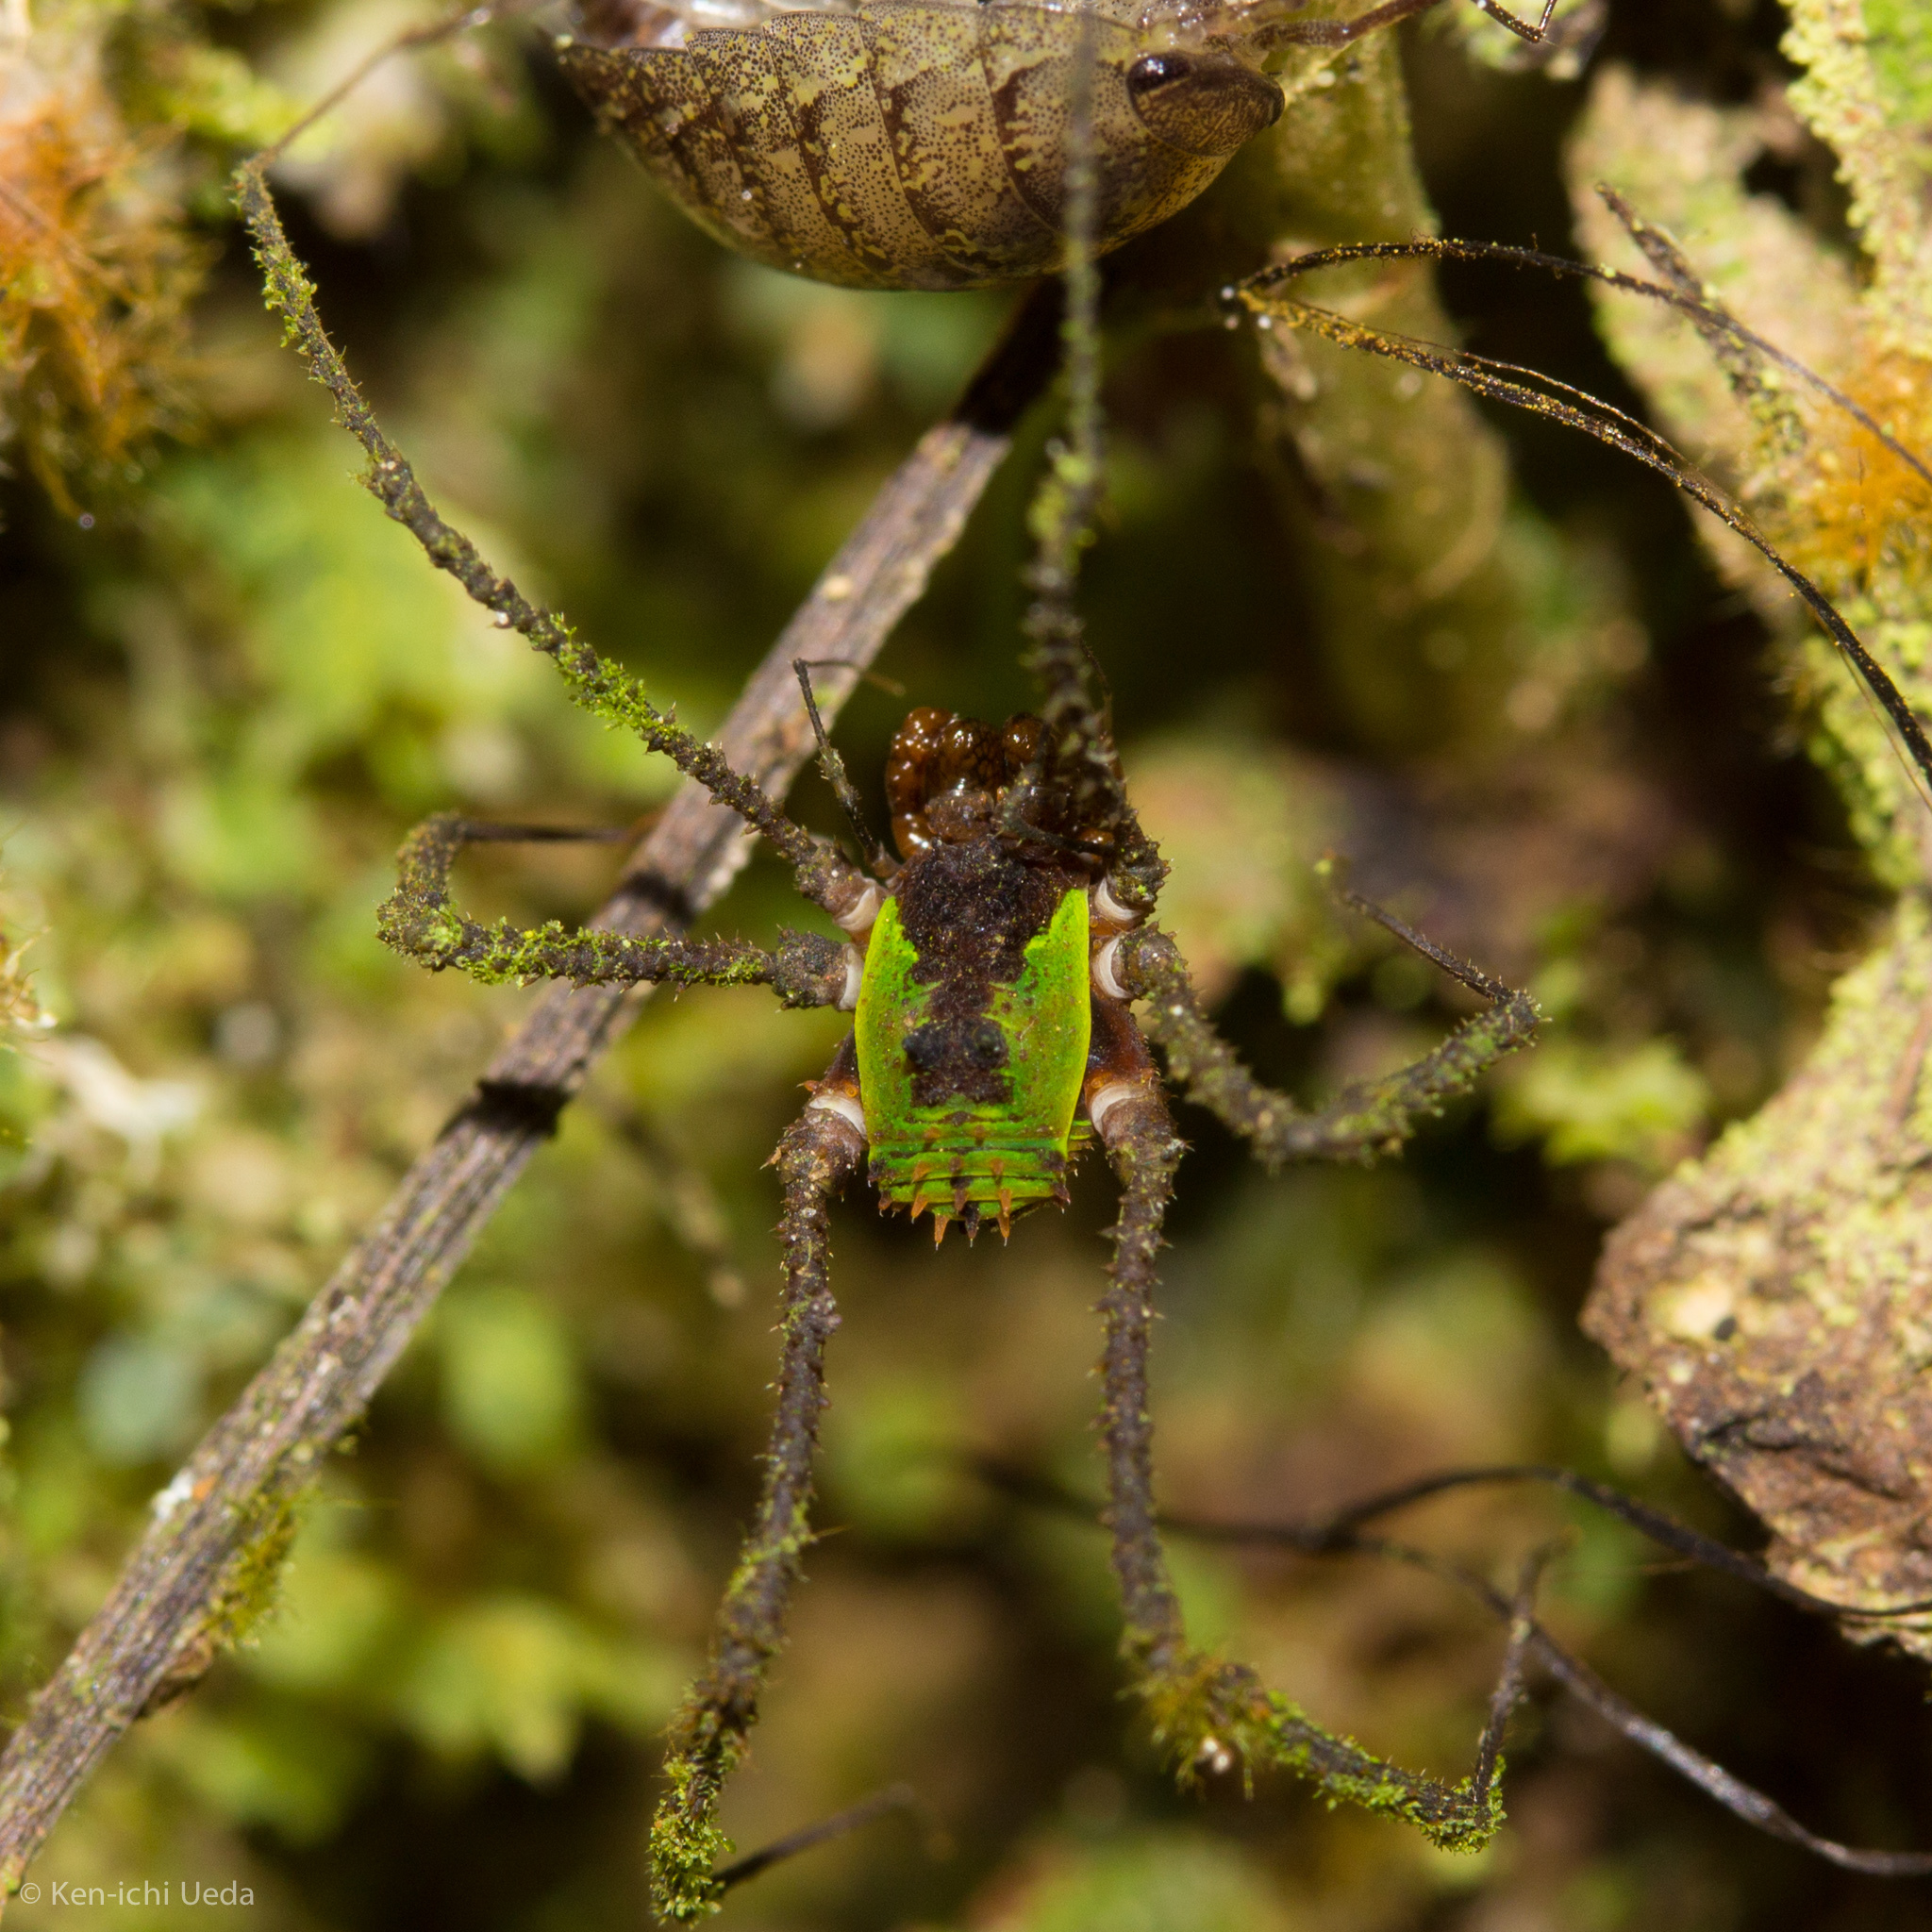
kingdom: Animalia
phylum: Arthropoda
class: Arachnida
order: Opiliones
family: Agoristenidae
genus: Muscopilio
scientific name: Muscopilio onod
